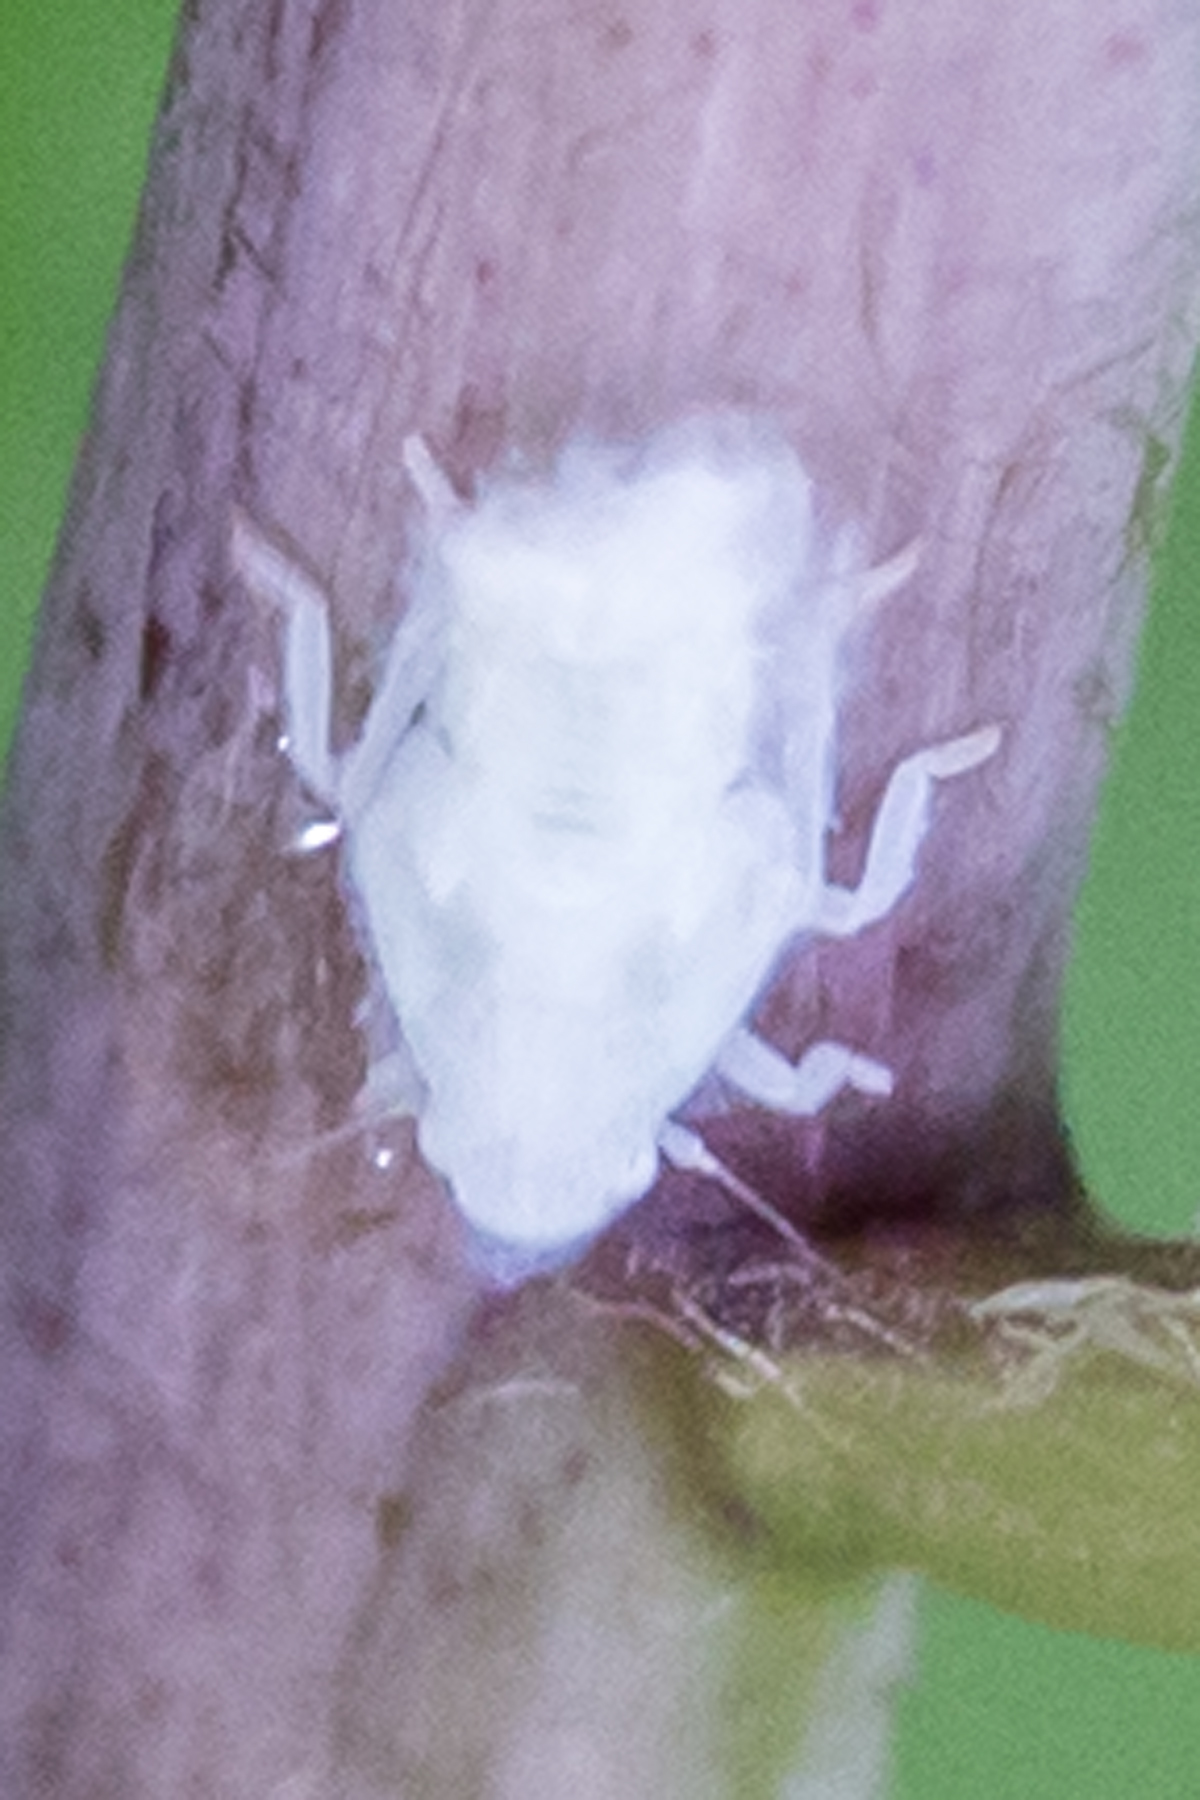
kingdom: Animalia
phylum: Arthropoda
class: Insecta
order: Hemiptera
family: Flatidae
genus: Flatormenis
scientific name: Flatormenis proxima
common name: Northern flatid planthopper
